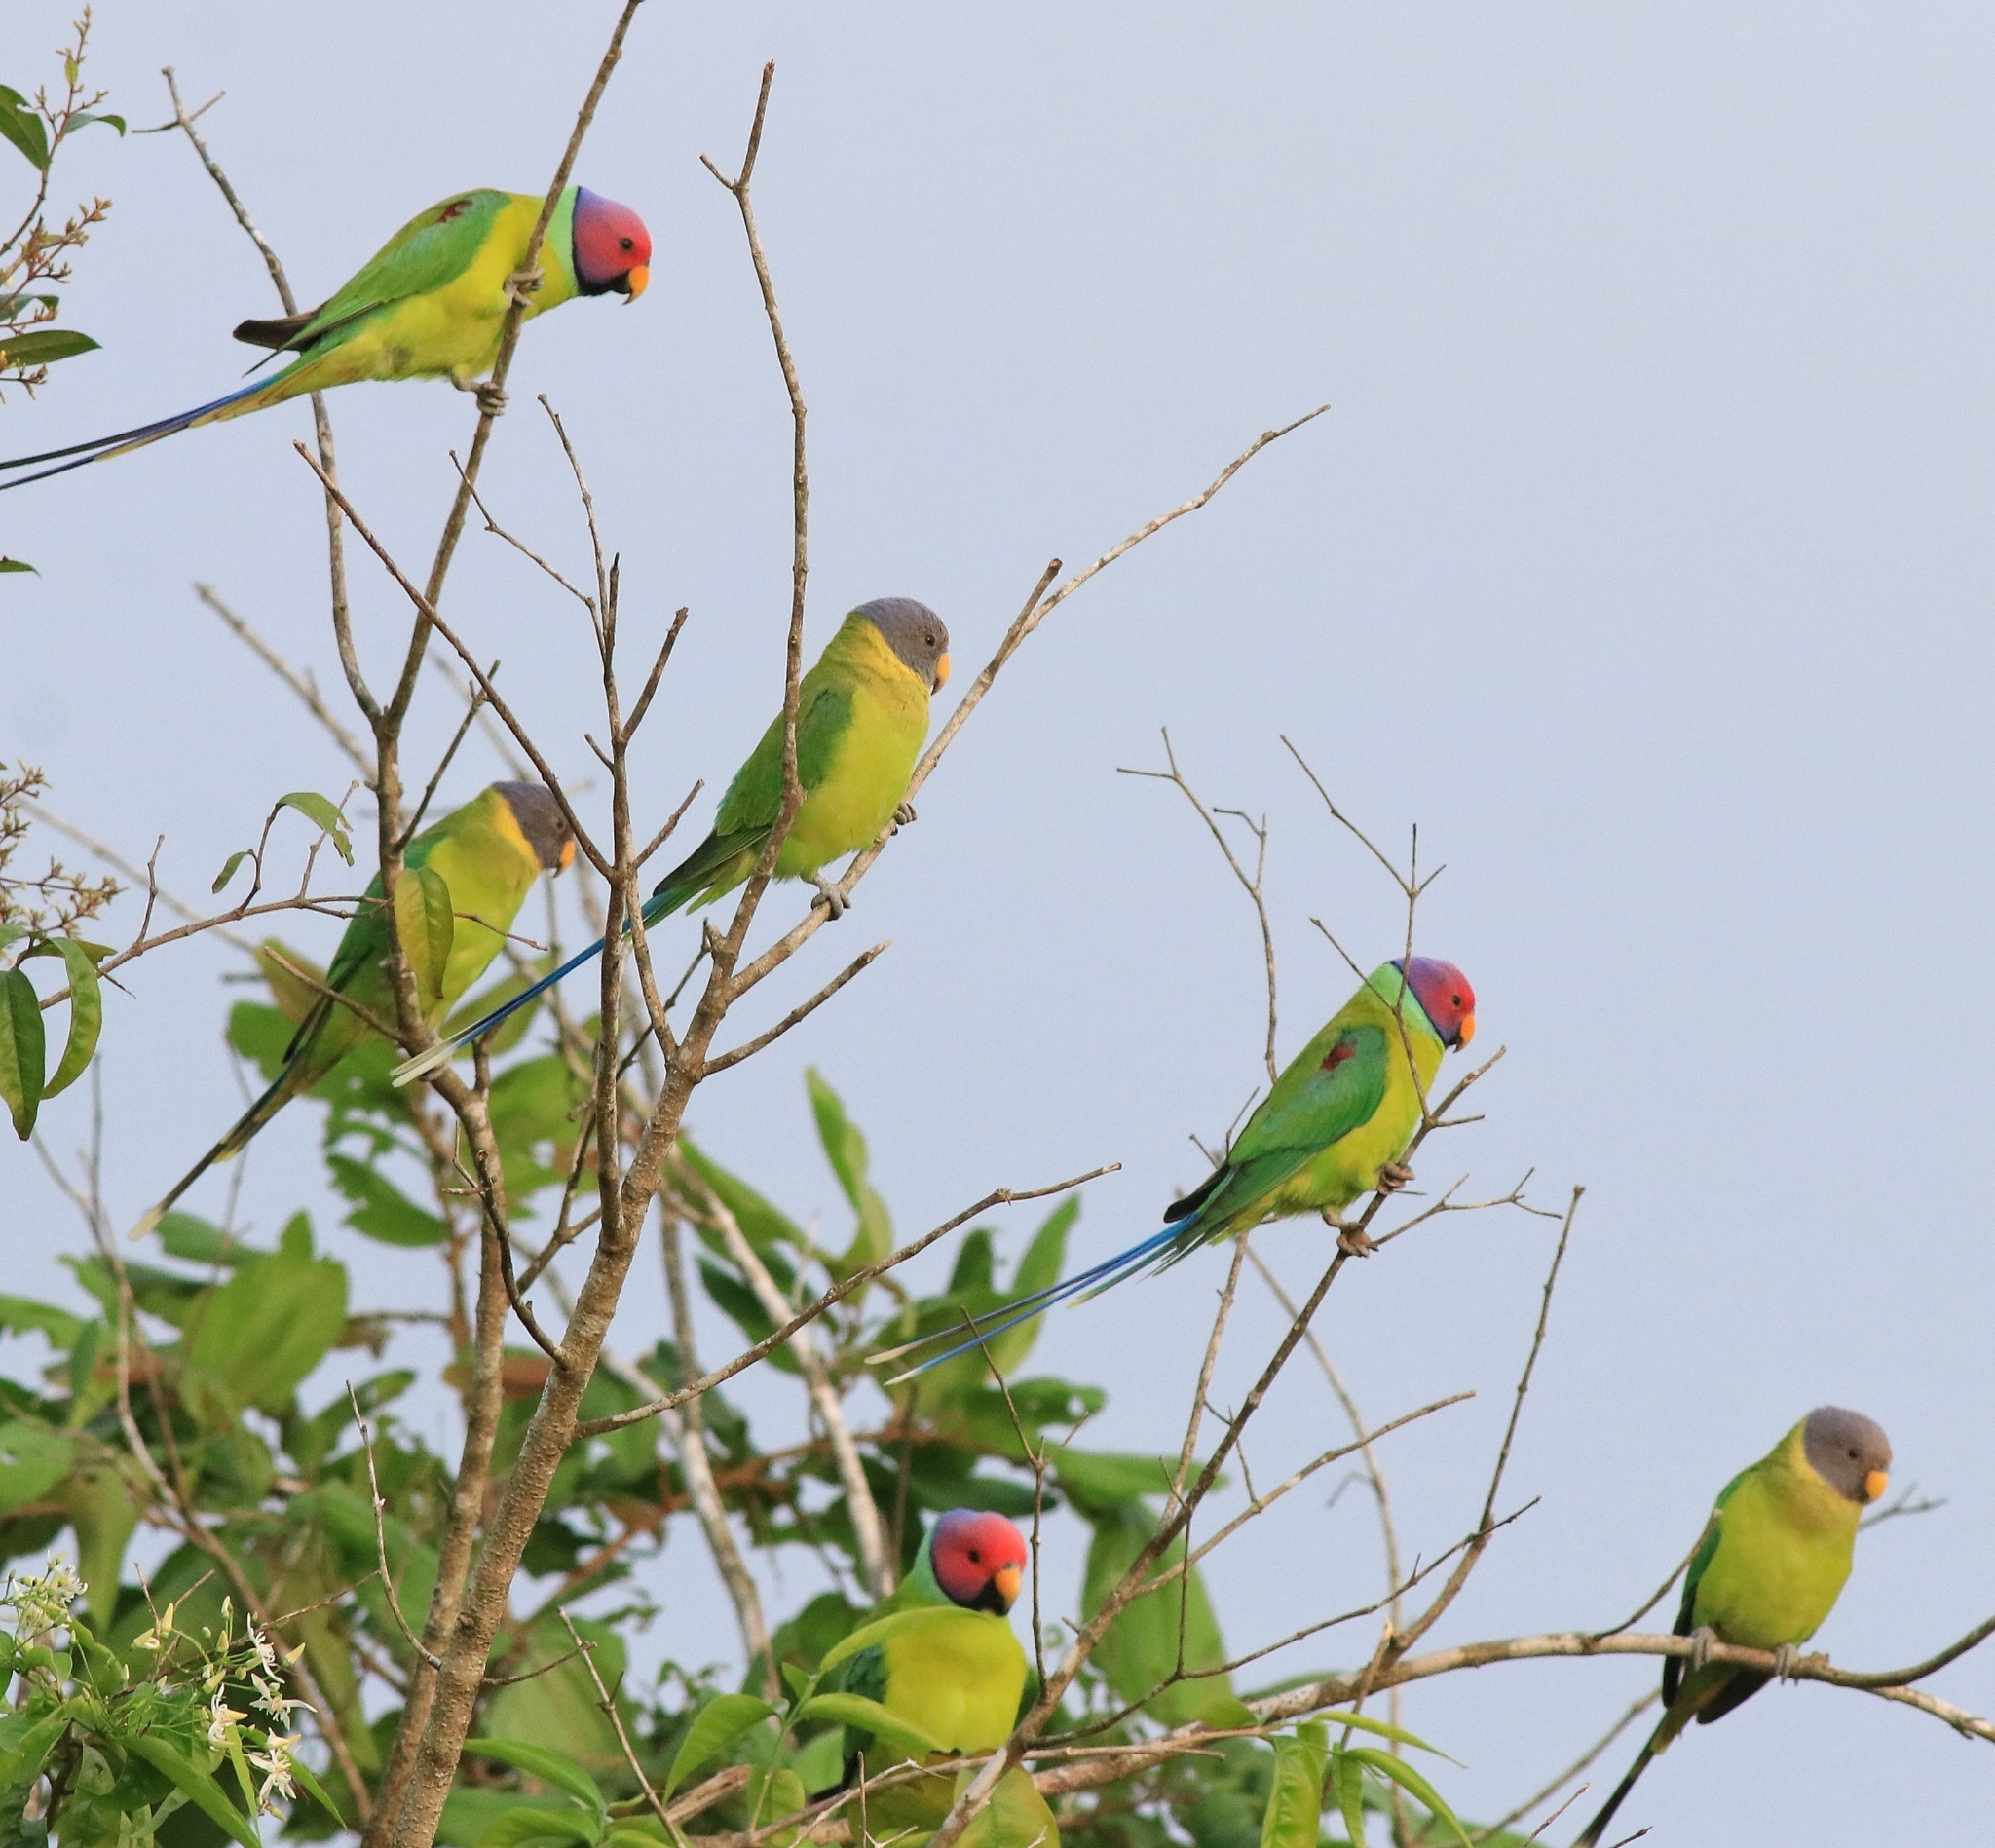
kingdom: Animalia
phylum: Chordata
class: Aves
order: Psittaciformes
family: Psittacidae
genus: Psittacula
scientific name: Psittacula cyanocephala
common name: Plum-headed parakeet
